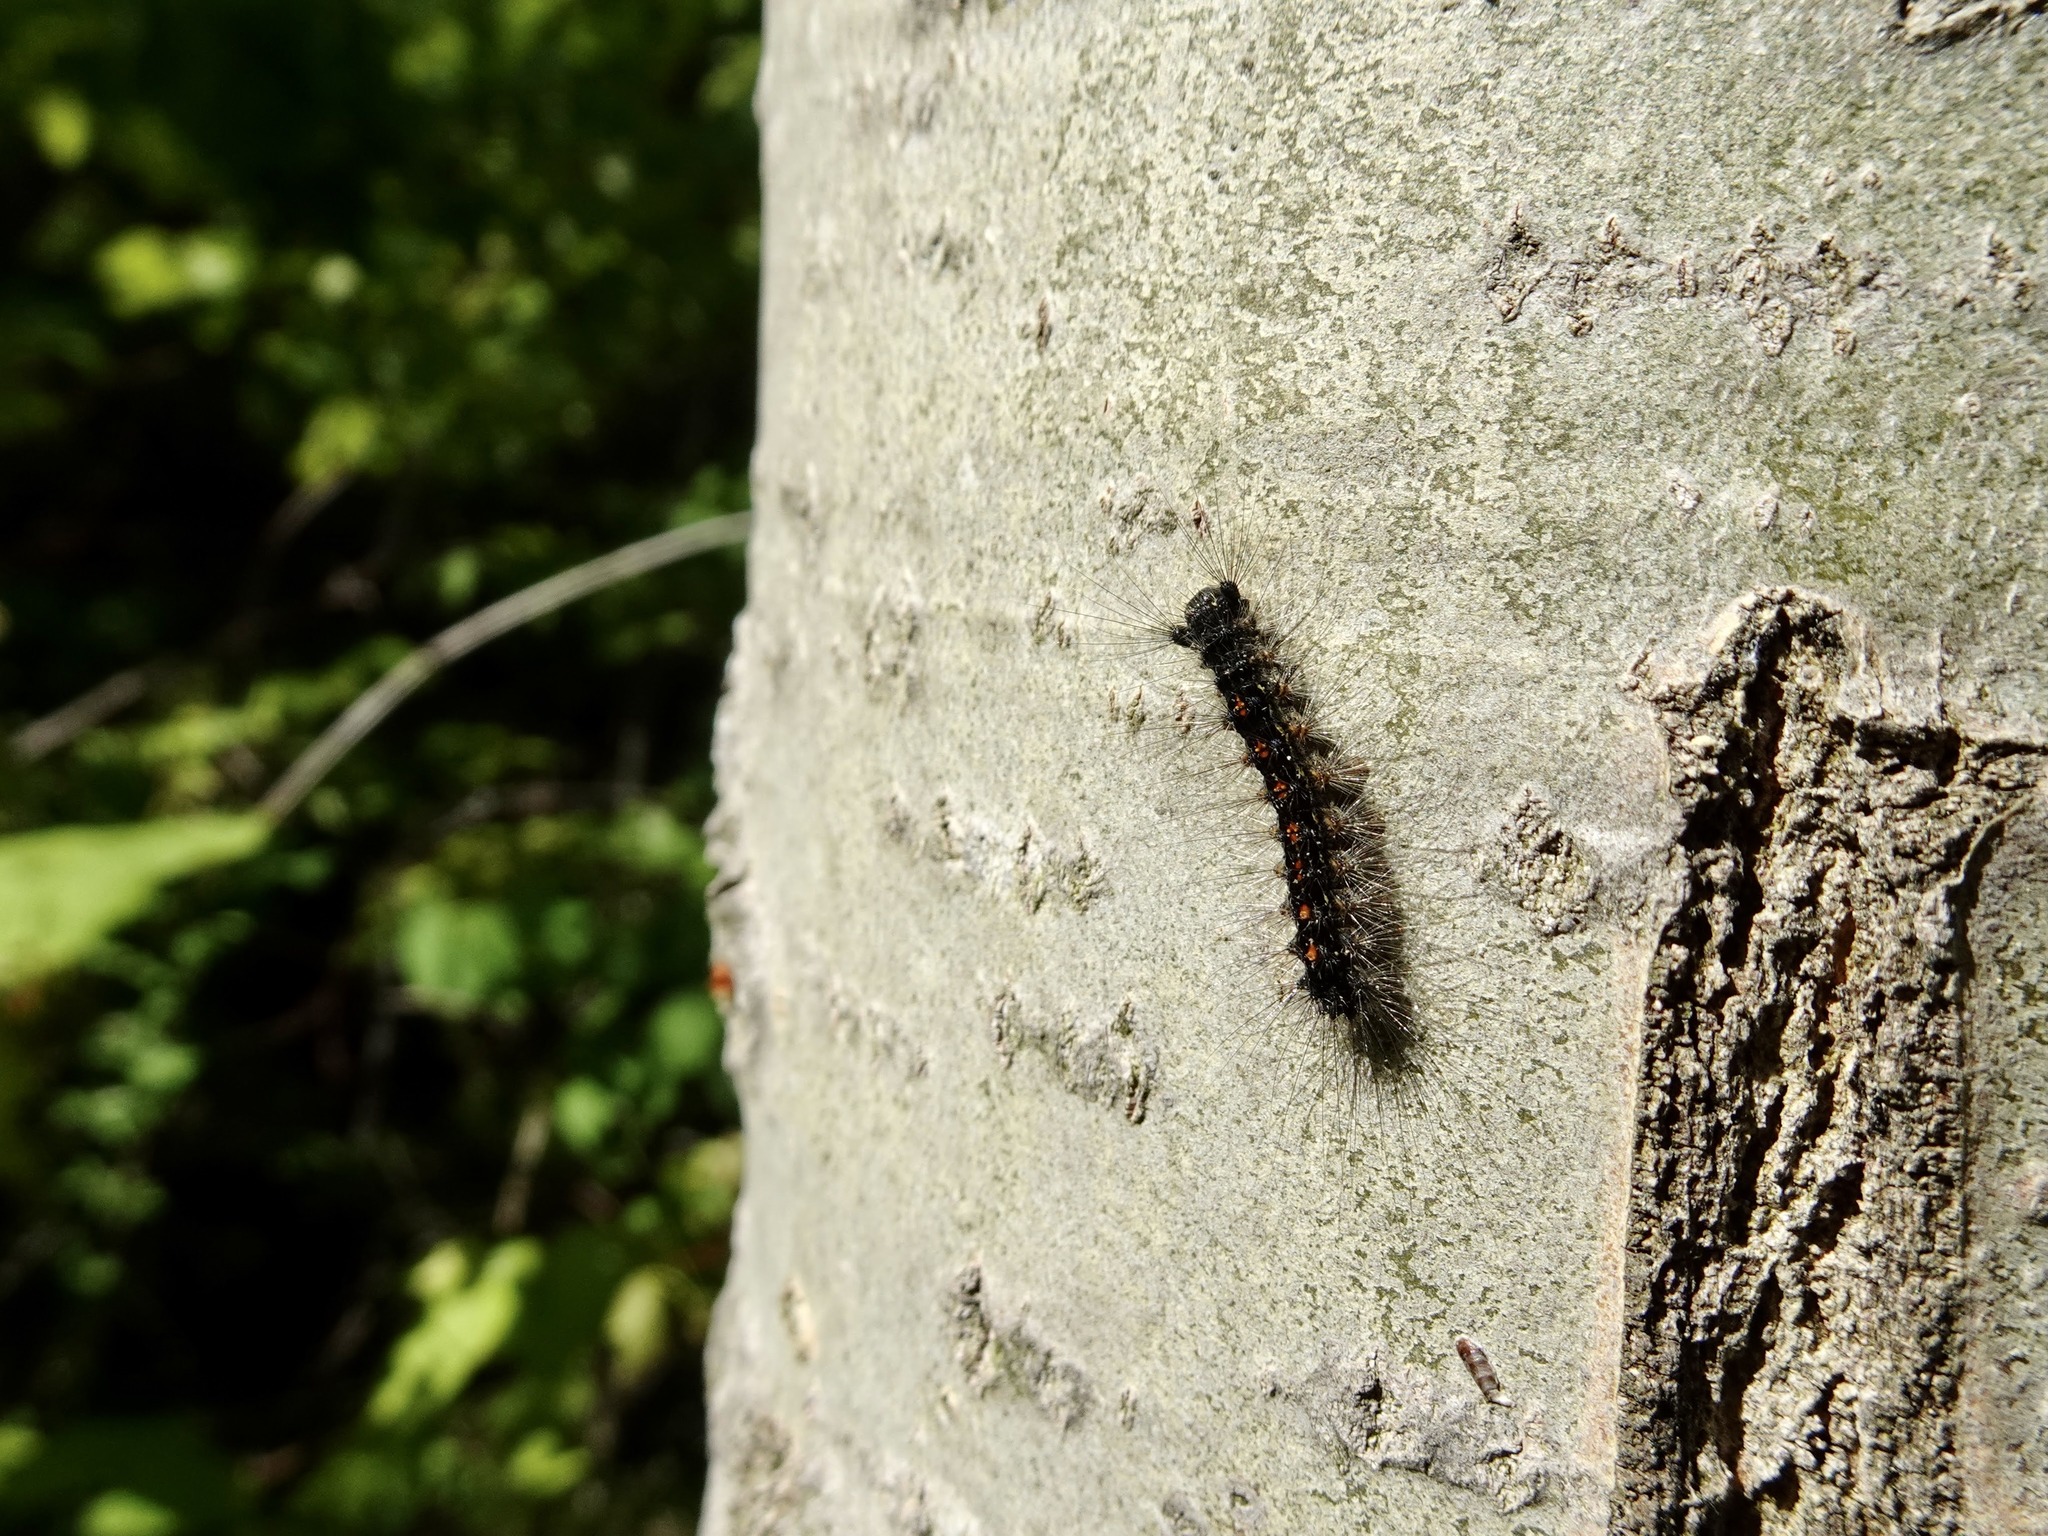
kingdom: Animalia
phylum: Arthropoda
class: Insecta
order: Lepidoptera
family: Erebidae
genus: Lymantria
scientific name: Lymantria dispar
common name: Gypsy moth
